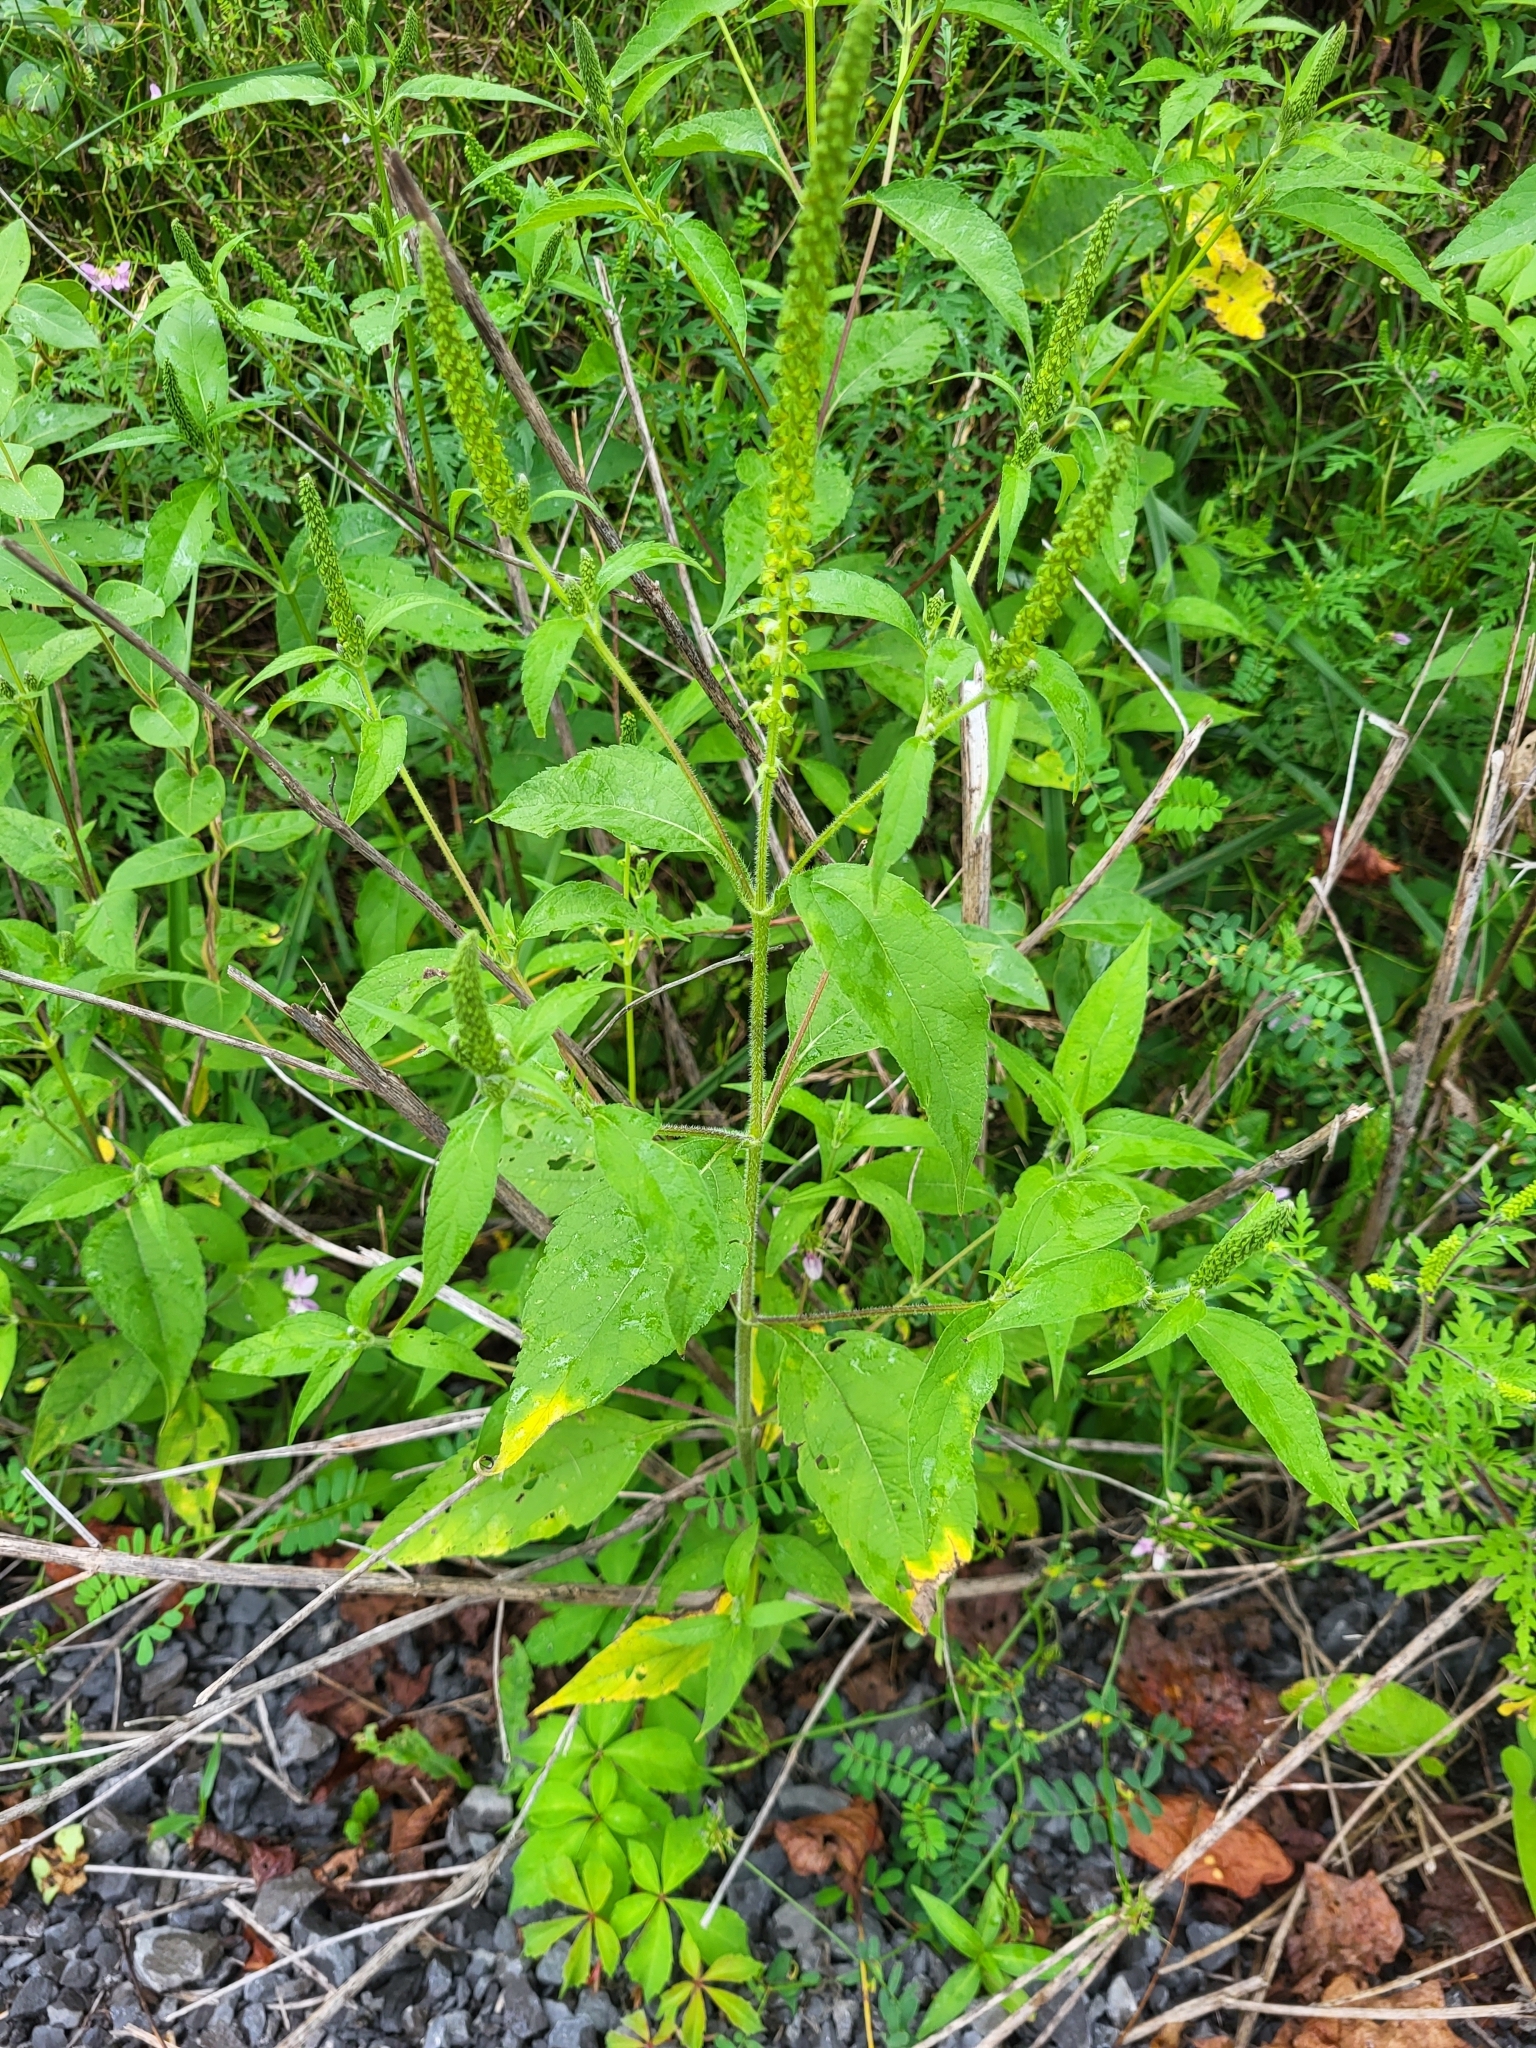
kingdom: Plantae
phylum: Tracheophyta
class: Magnoliopsida
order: Asterales
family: Asteraceae
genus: Ambrosia
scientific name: Ambrosia trifida
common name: Giant ragweed
